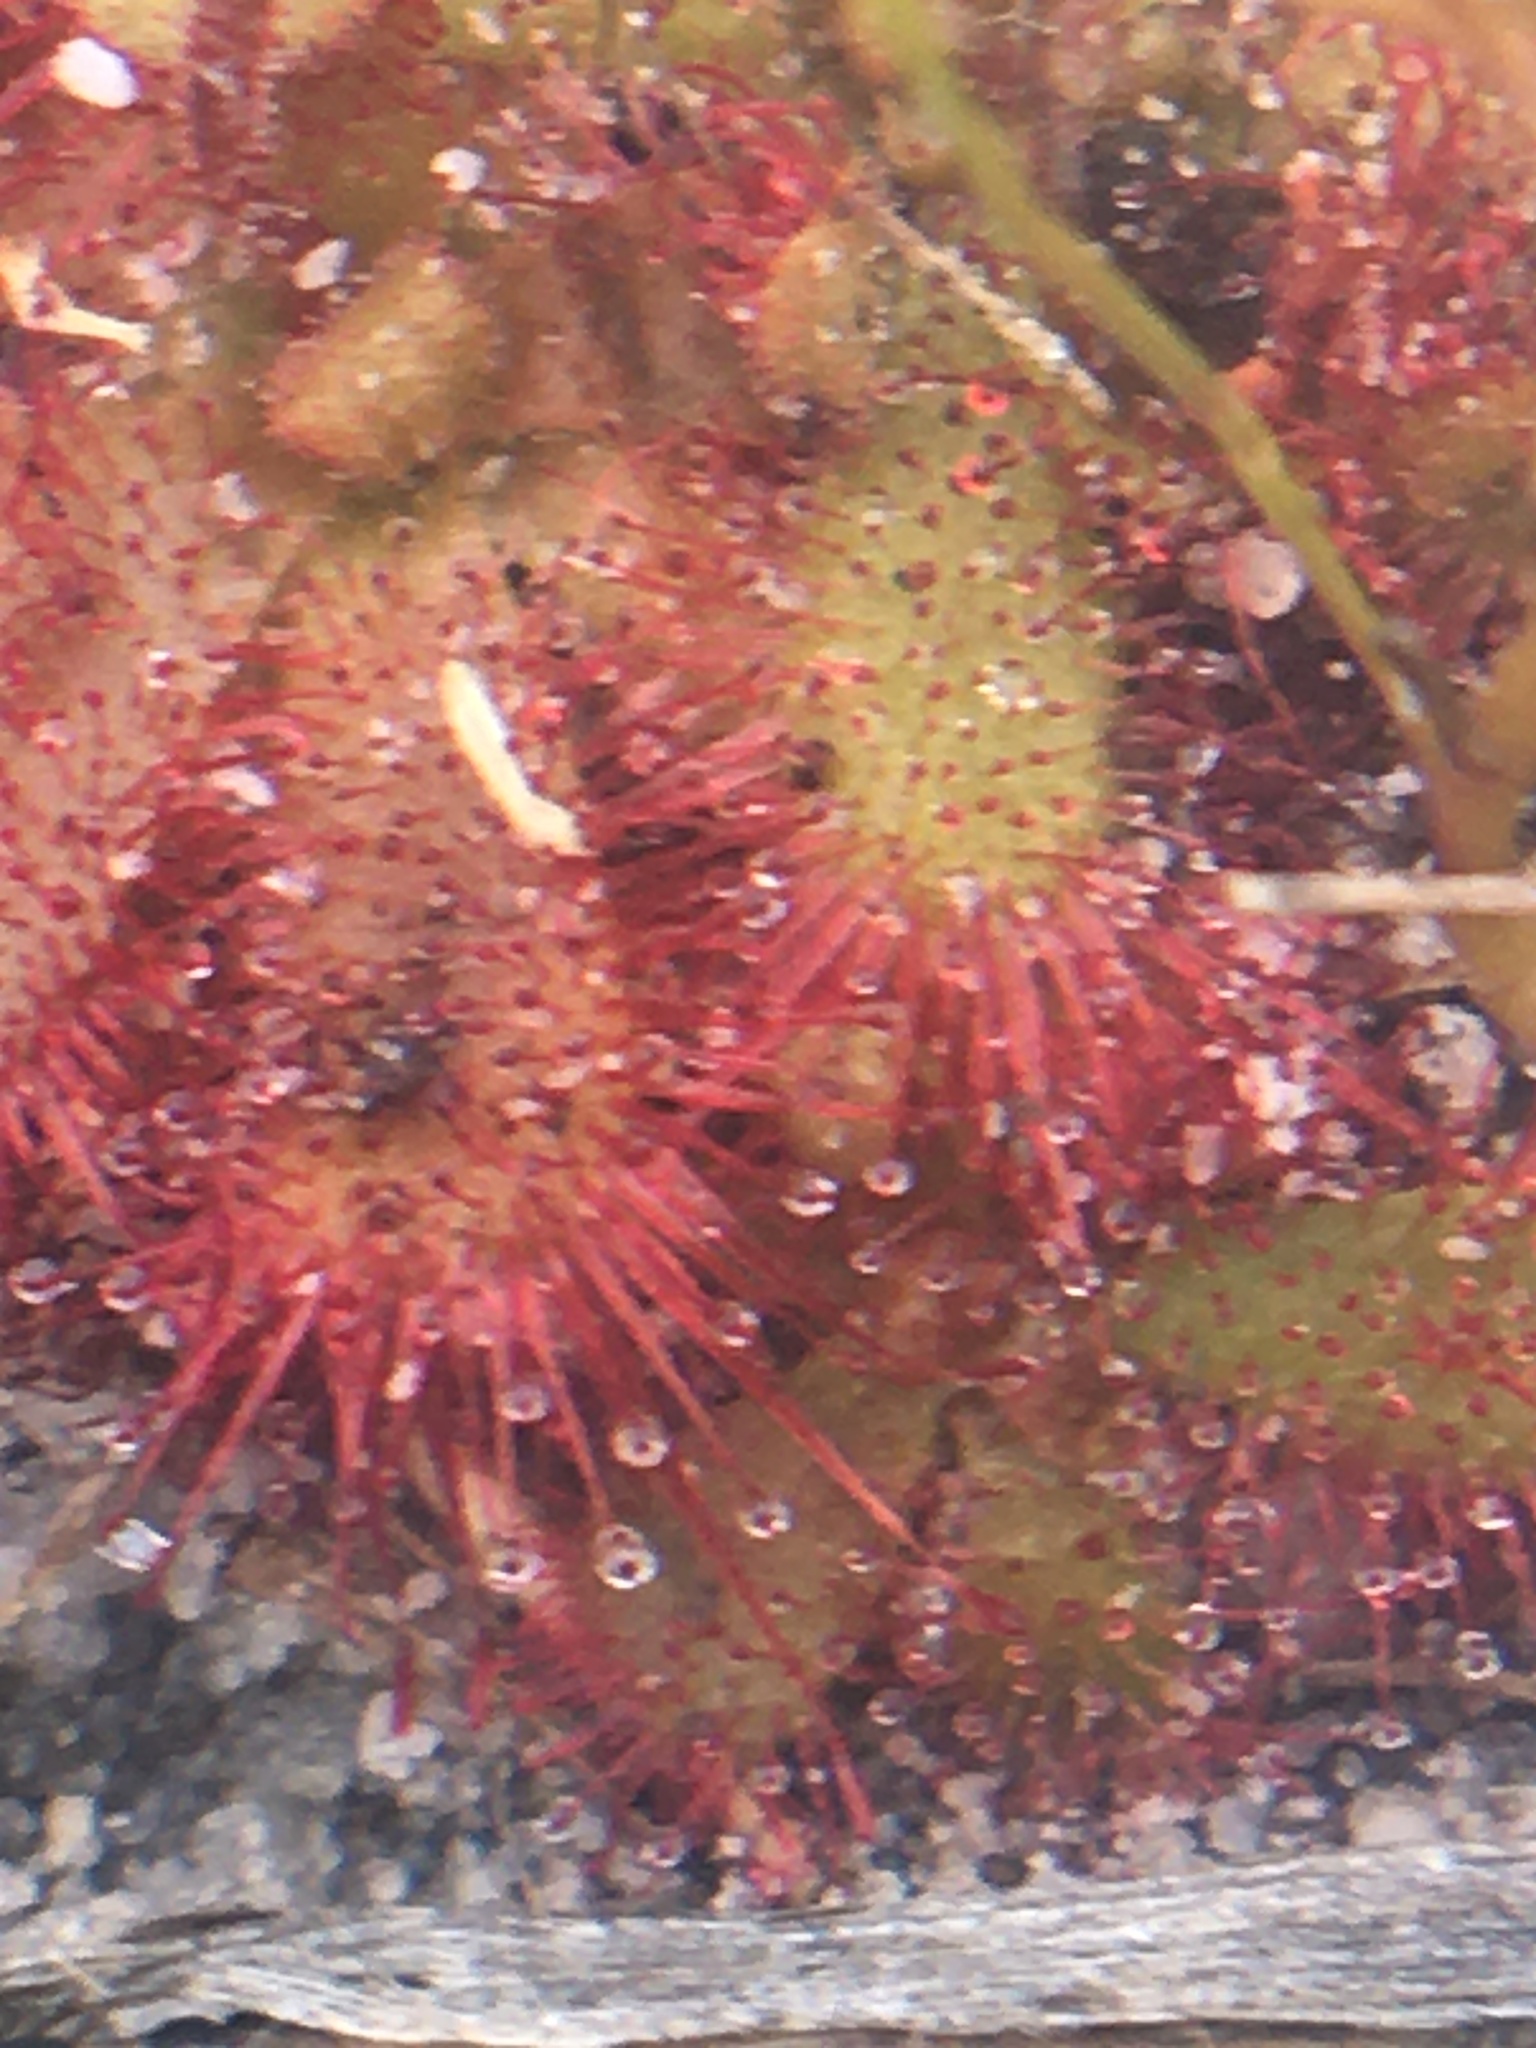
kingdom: Plantae
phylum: Tracheophyta
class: Magnoliopsida
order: Caryophyllales
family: Droseraceae
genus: Drosera
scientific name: Drosera trinervia
